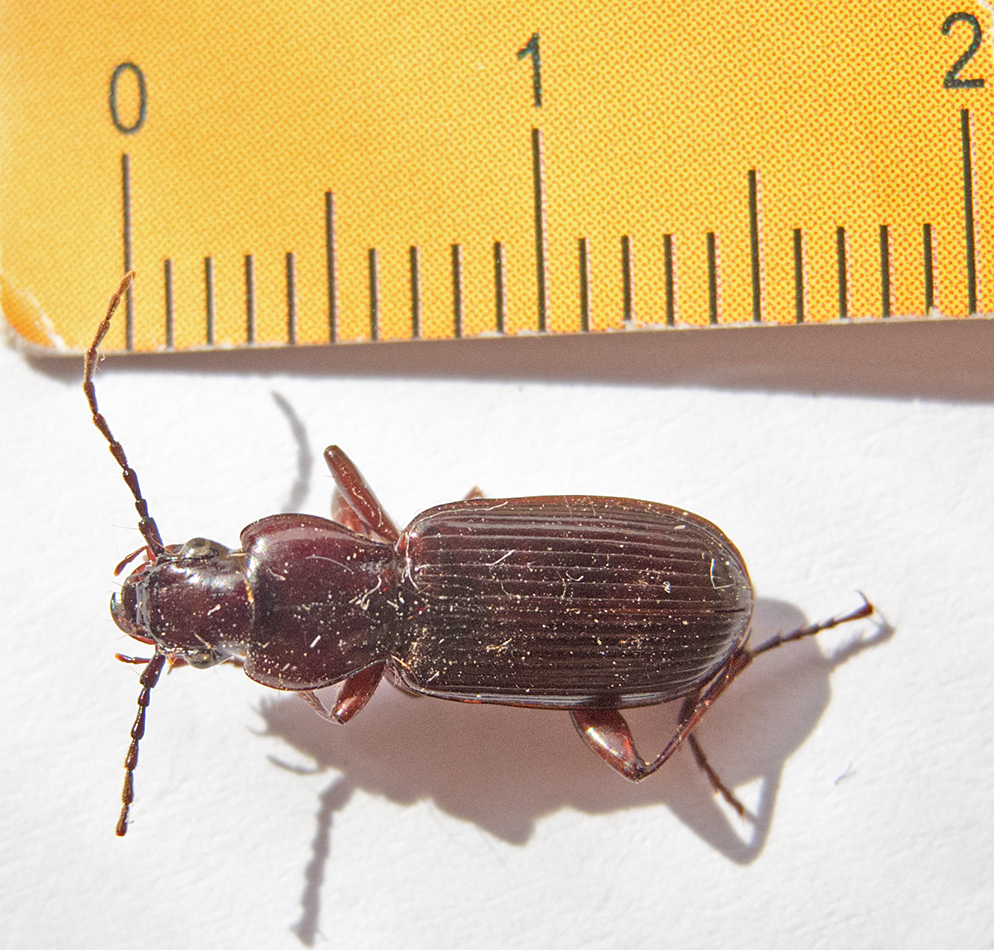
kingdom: Animalia
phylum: Arthropoda
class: Insecta
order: Coleoptera
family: Carabidae
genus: Pterostichus
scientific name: Pterostichus macer
